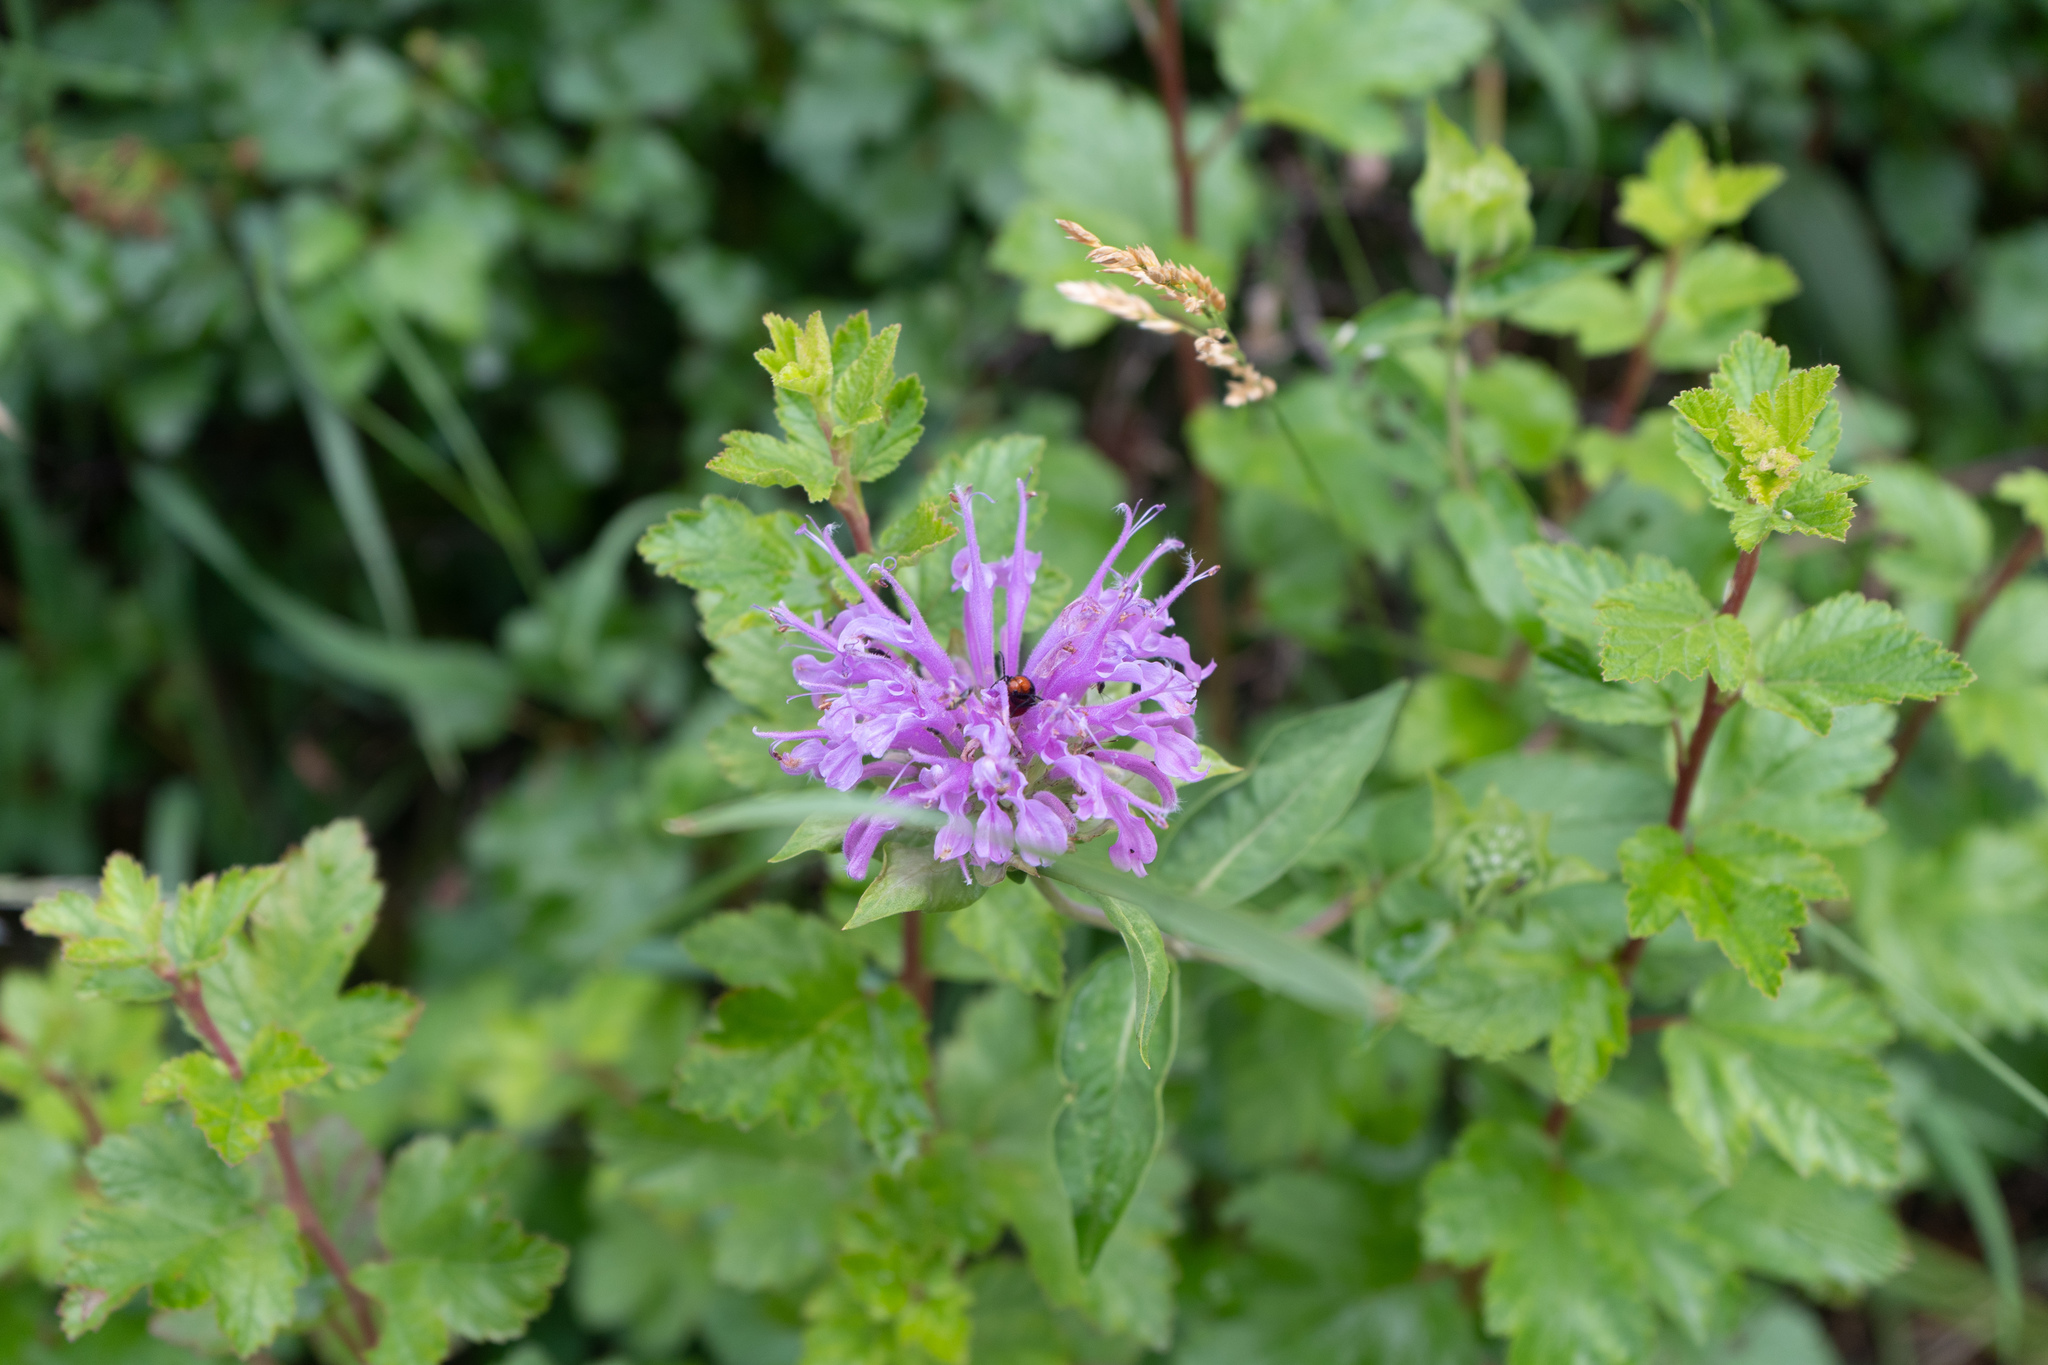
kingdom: Plantae
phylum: Tracheophyta
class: Magnoliopsida
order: Lamiales
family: Lamiaceae
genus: Monarda
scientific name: Monarda fistulosa
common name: Purple beebalm
